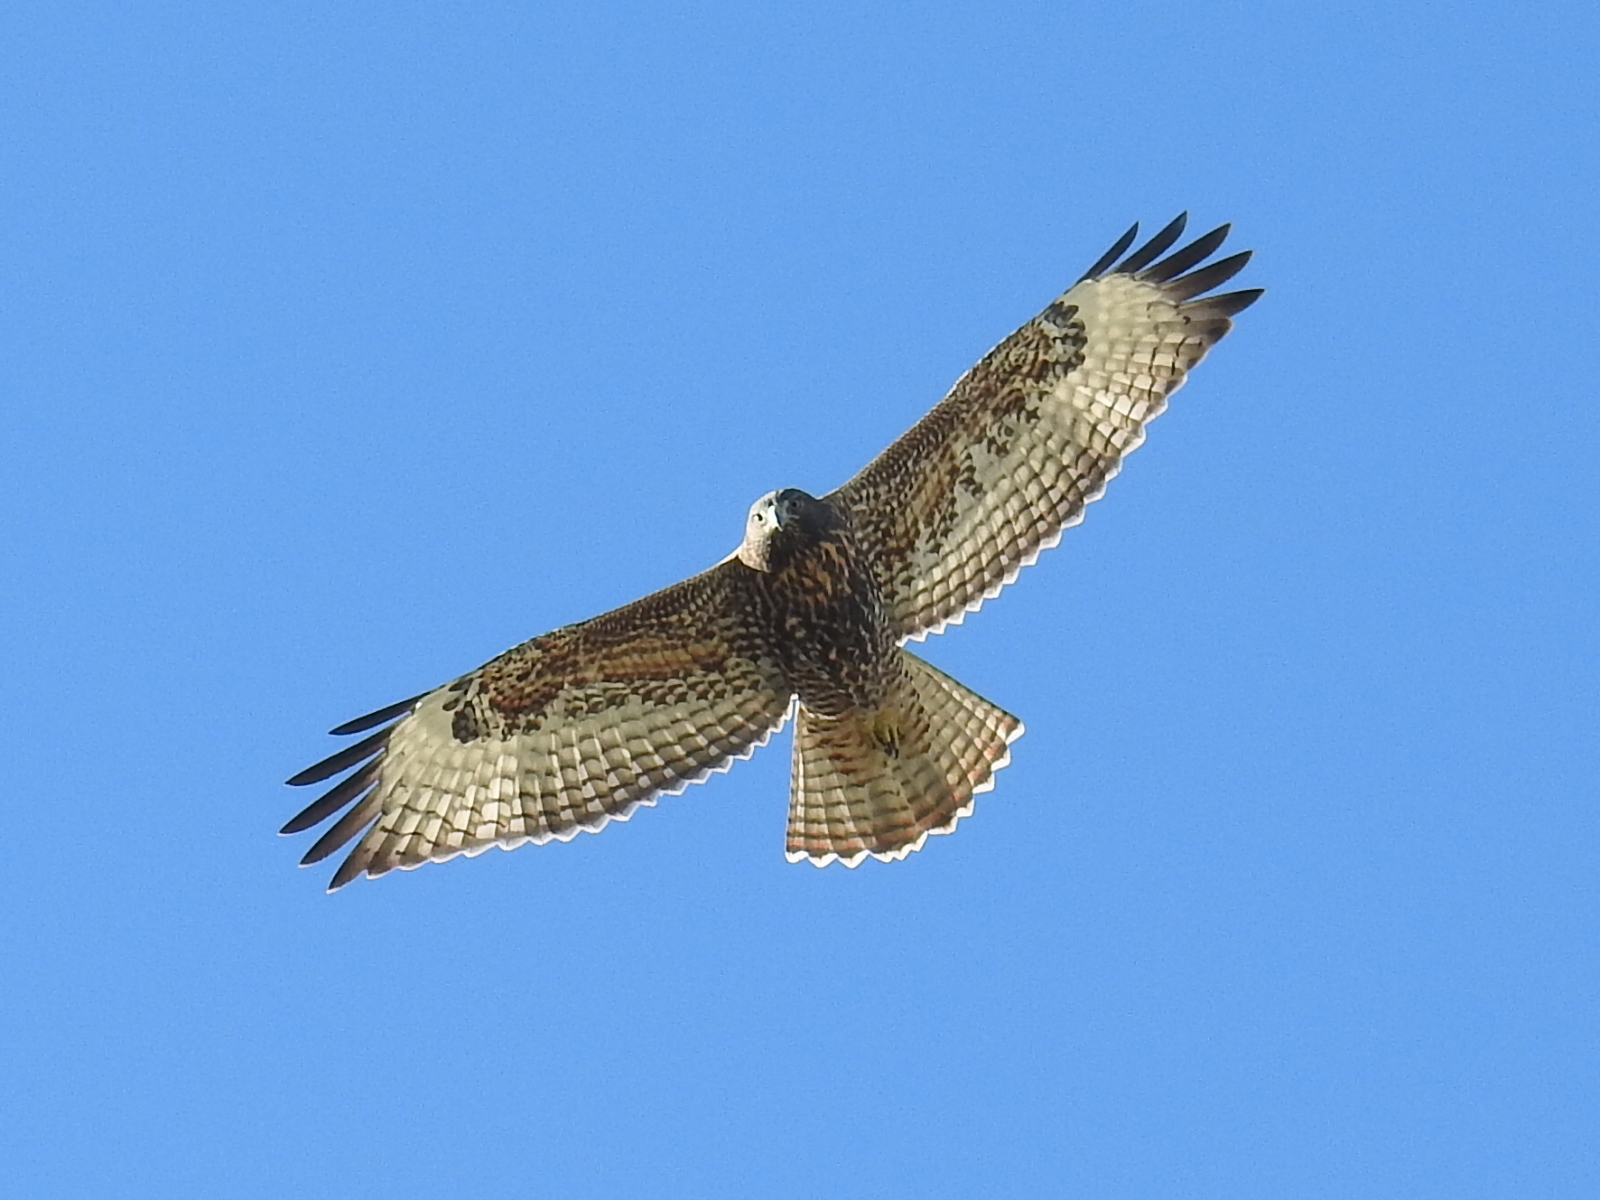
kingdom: Animalia
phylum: Chordata
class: Aves
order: Accipitriformes
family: Accipitridae
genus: Buteo
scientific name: Buteo jamaicensis
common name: Red-tailed hawk
